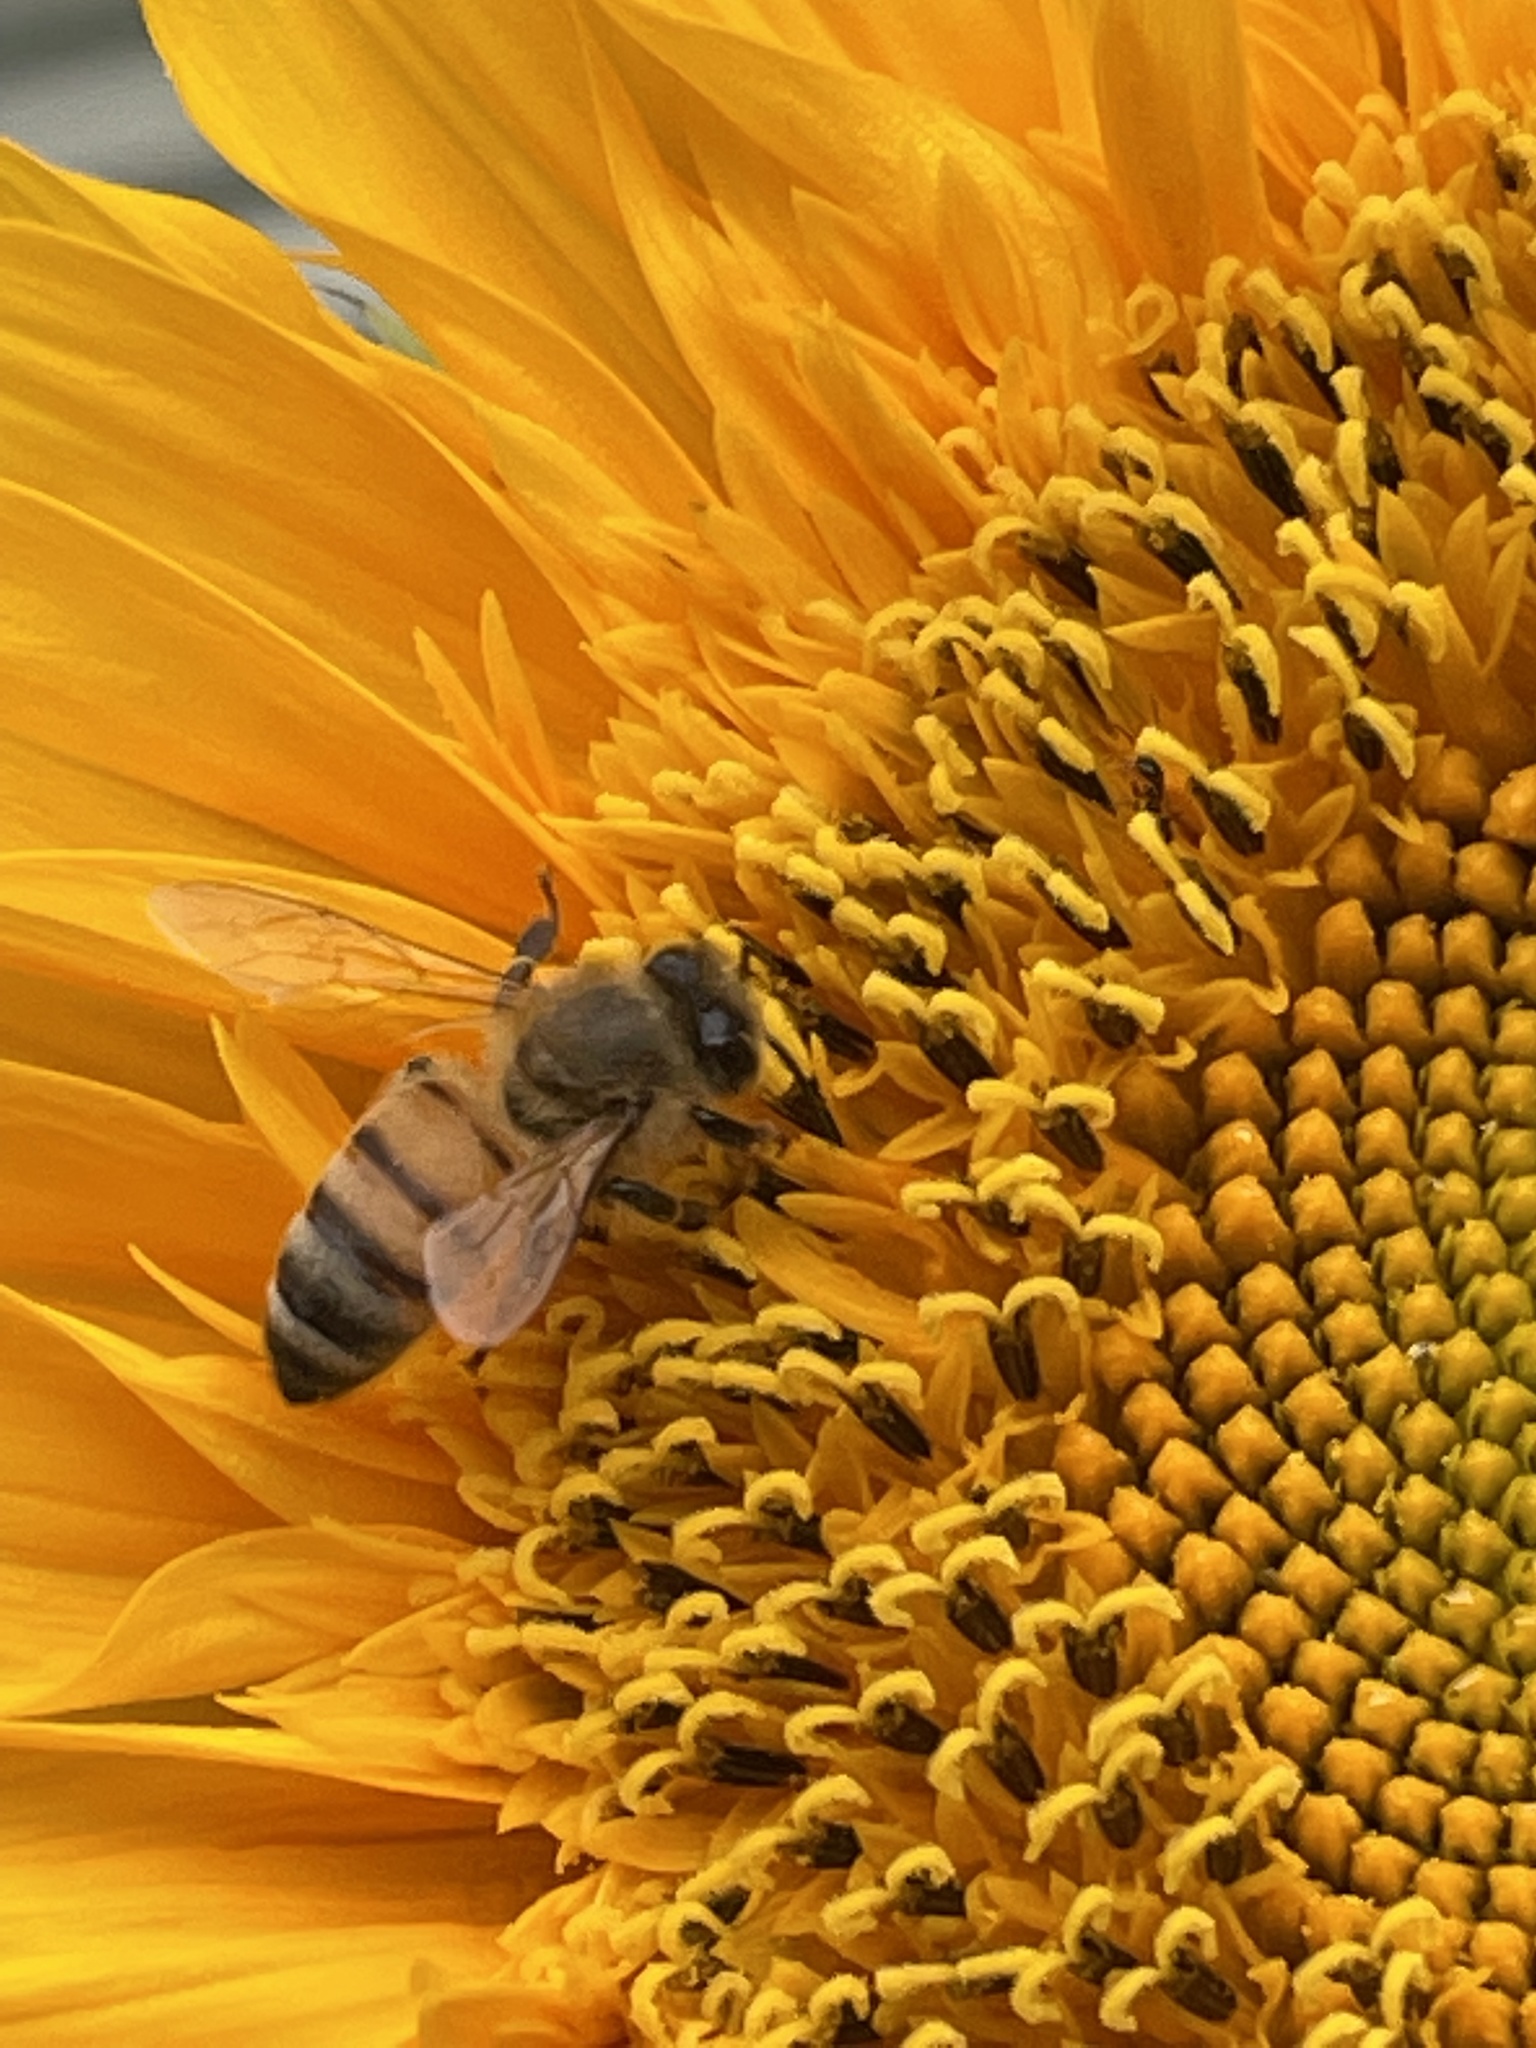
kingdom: Animalia
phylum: Arthropoda
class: Insecta
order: Hymenoptera
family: Apidae
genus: Apis
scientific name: Apis mellifera
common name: Honey bee
